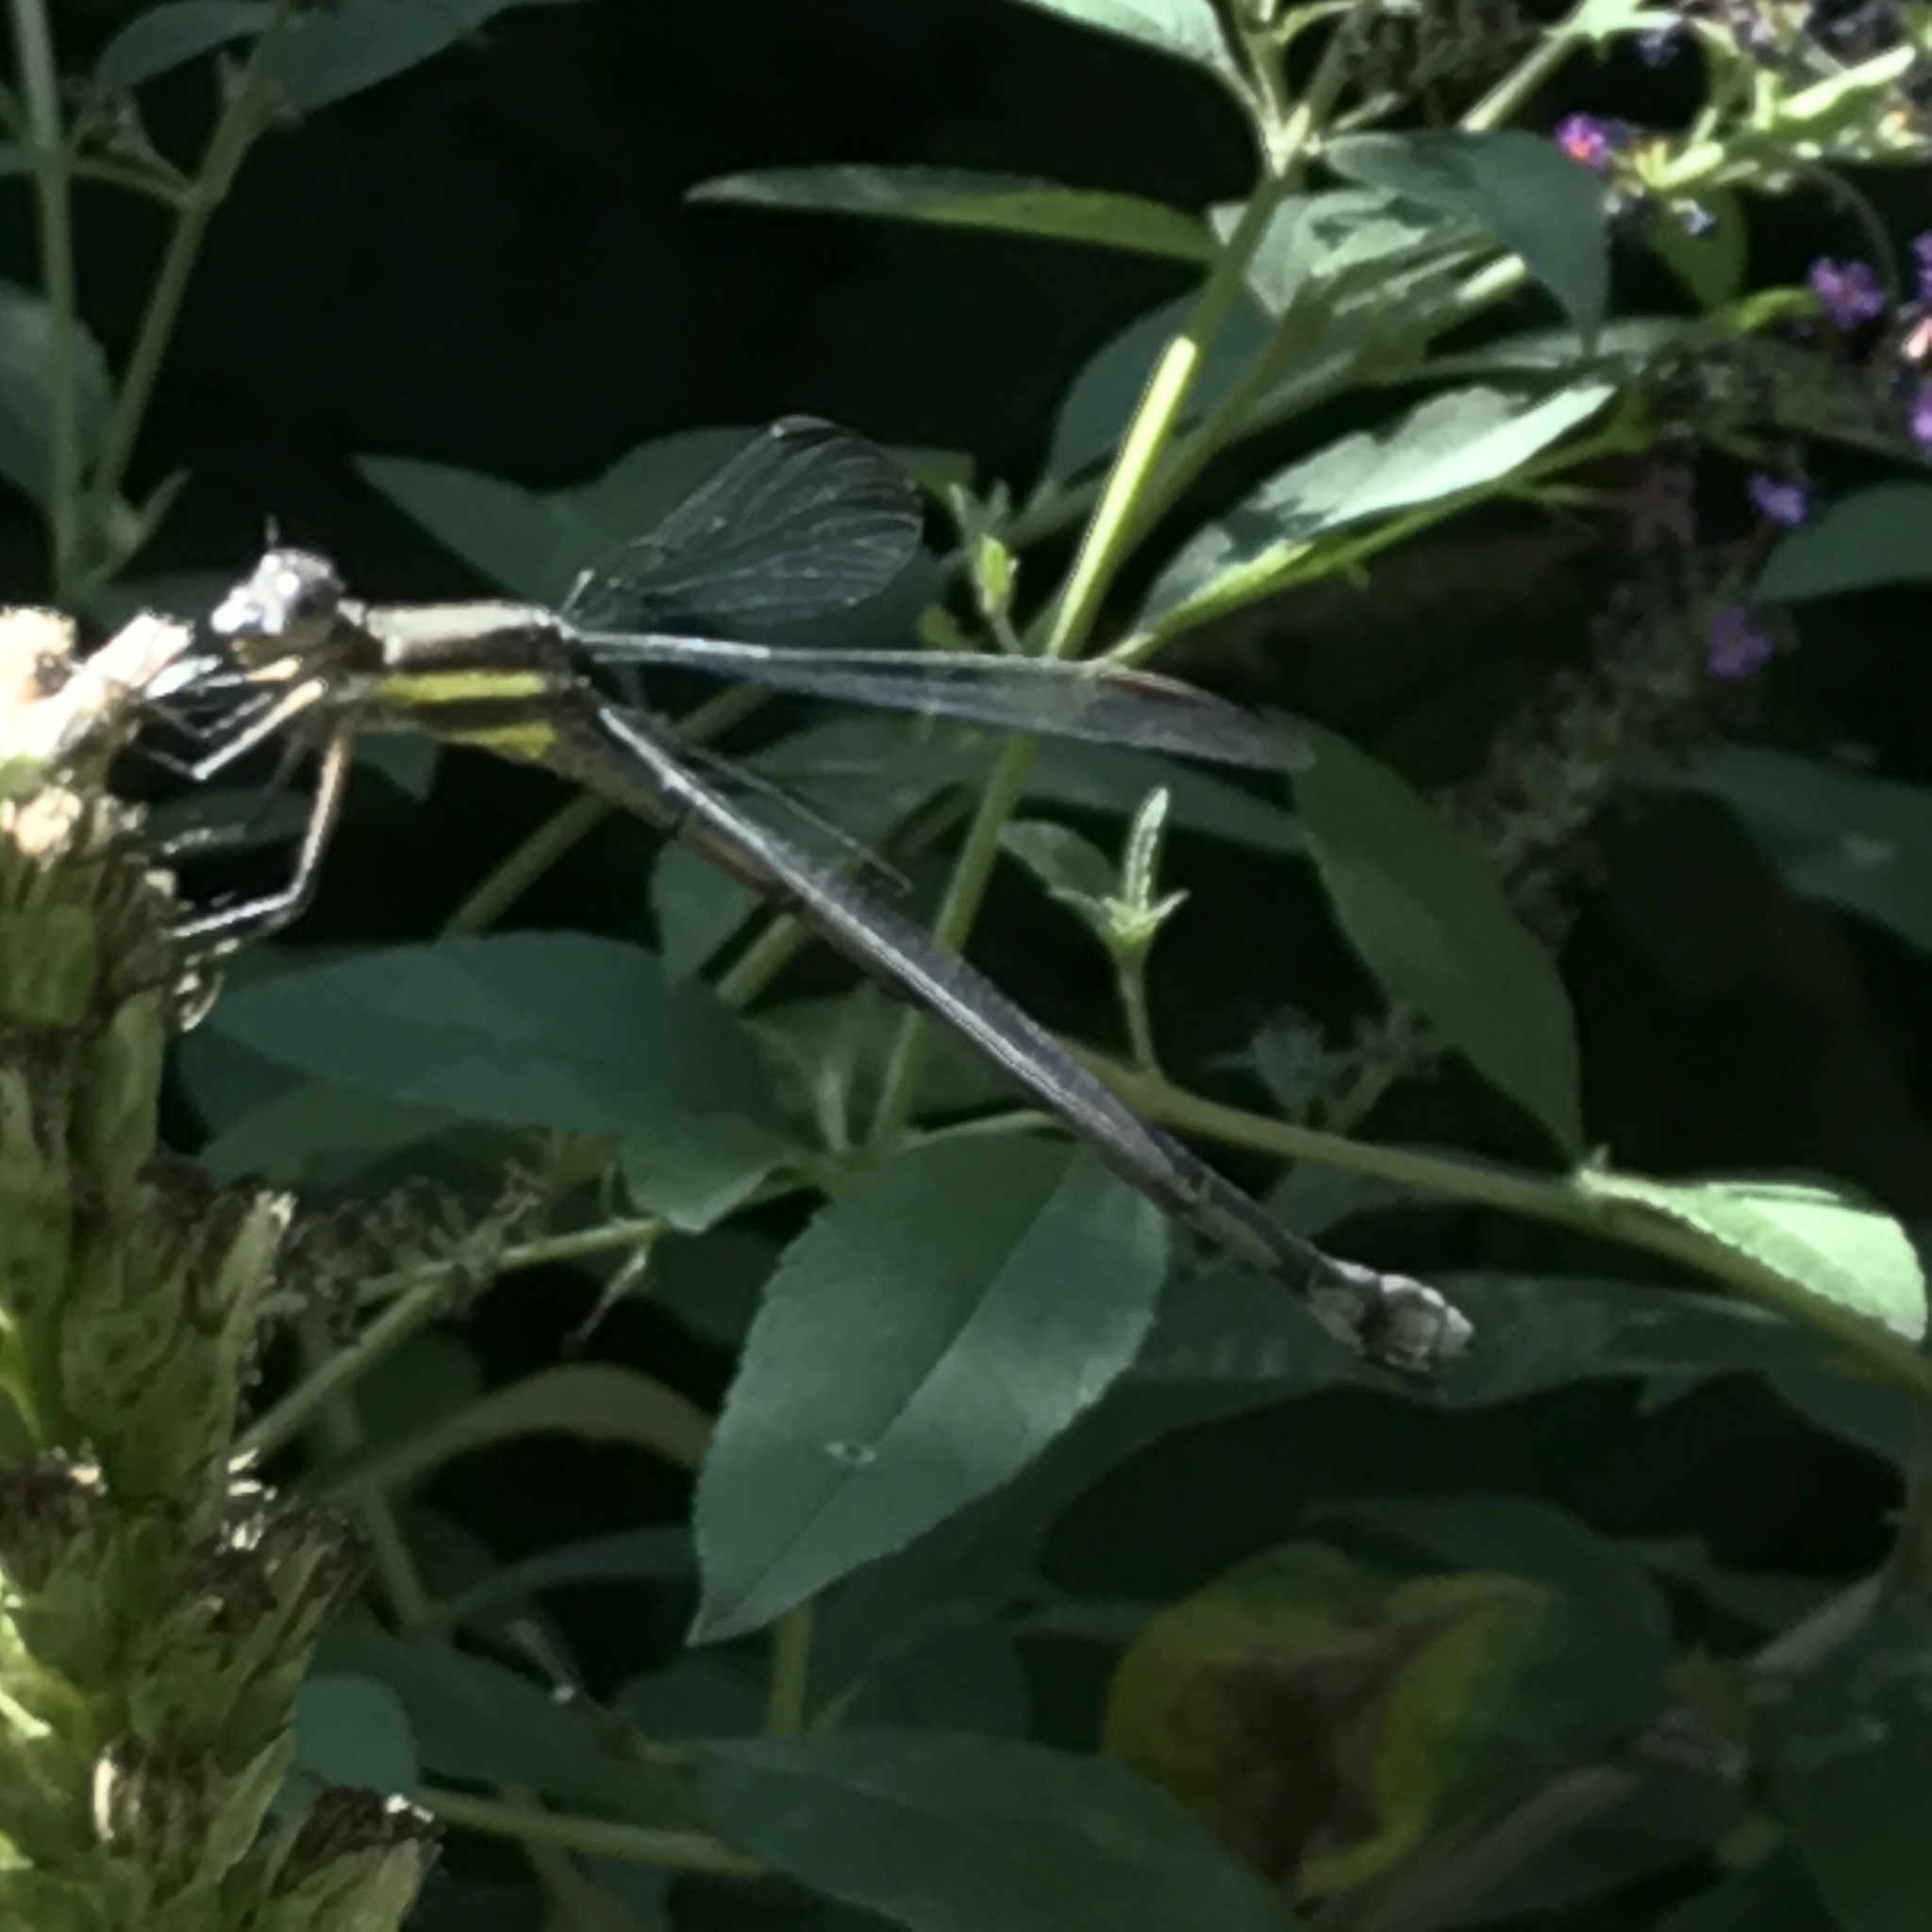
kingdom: Animalia
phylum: Arthropoda
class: Insecta
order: Odonata
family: Lestidae
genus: Archilestes
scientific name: Archilestes grandis
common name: Great spreadwing
